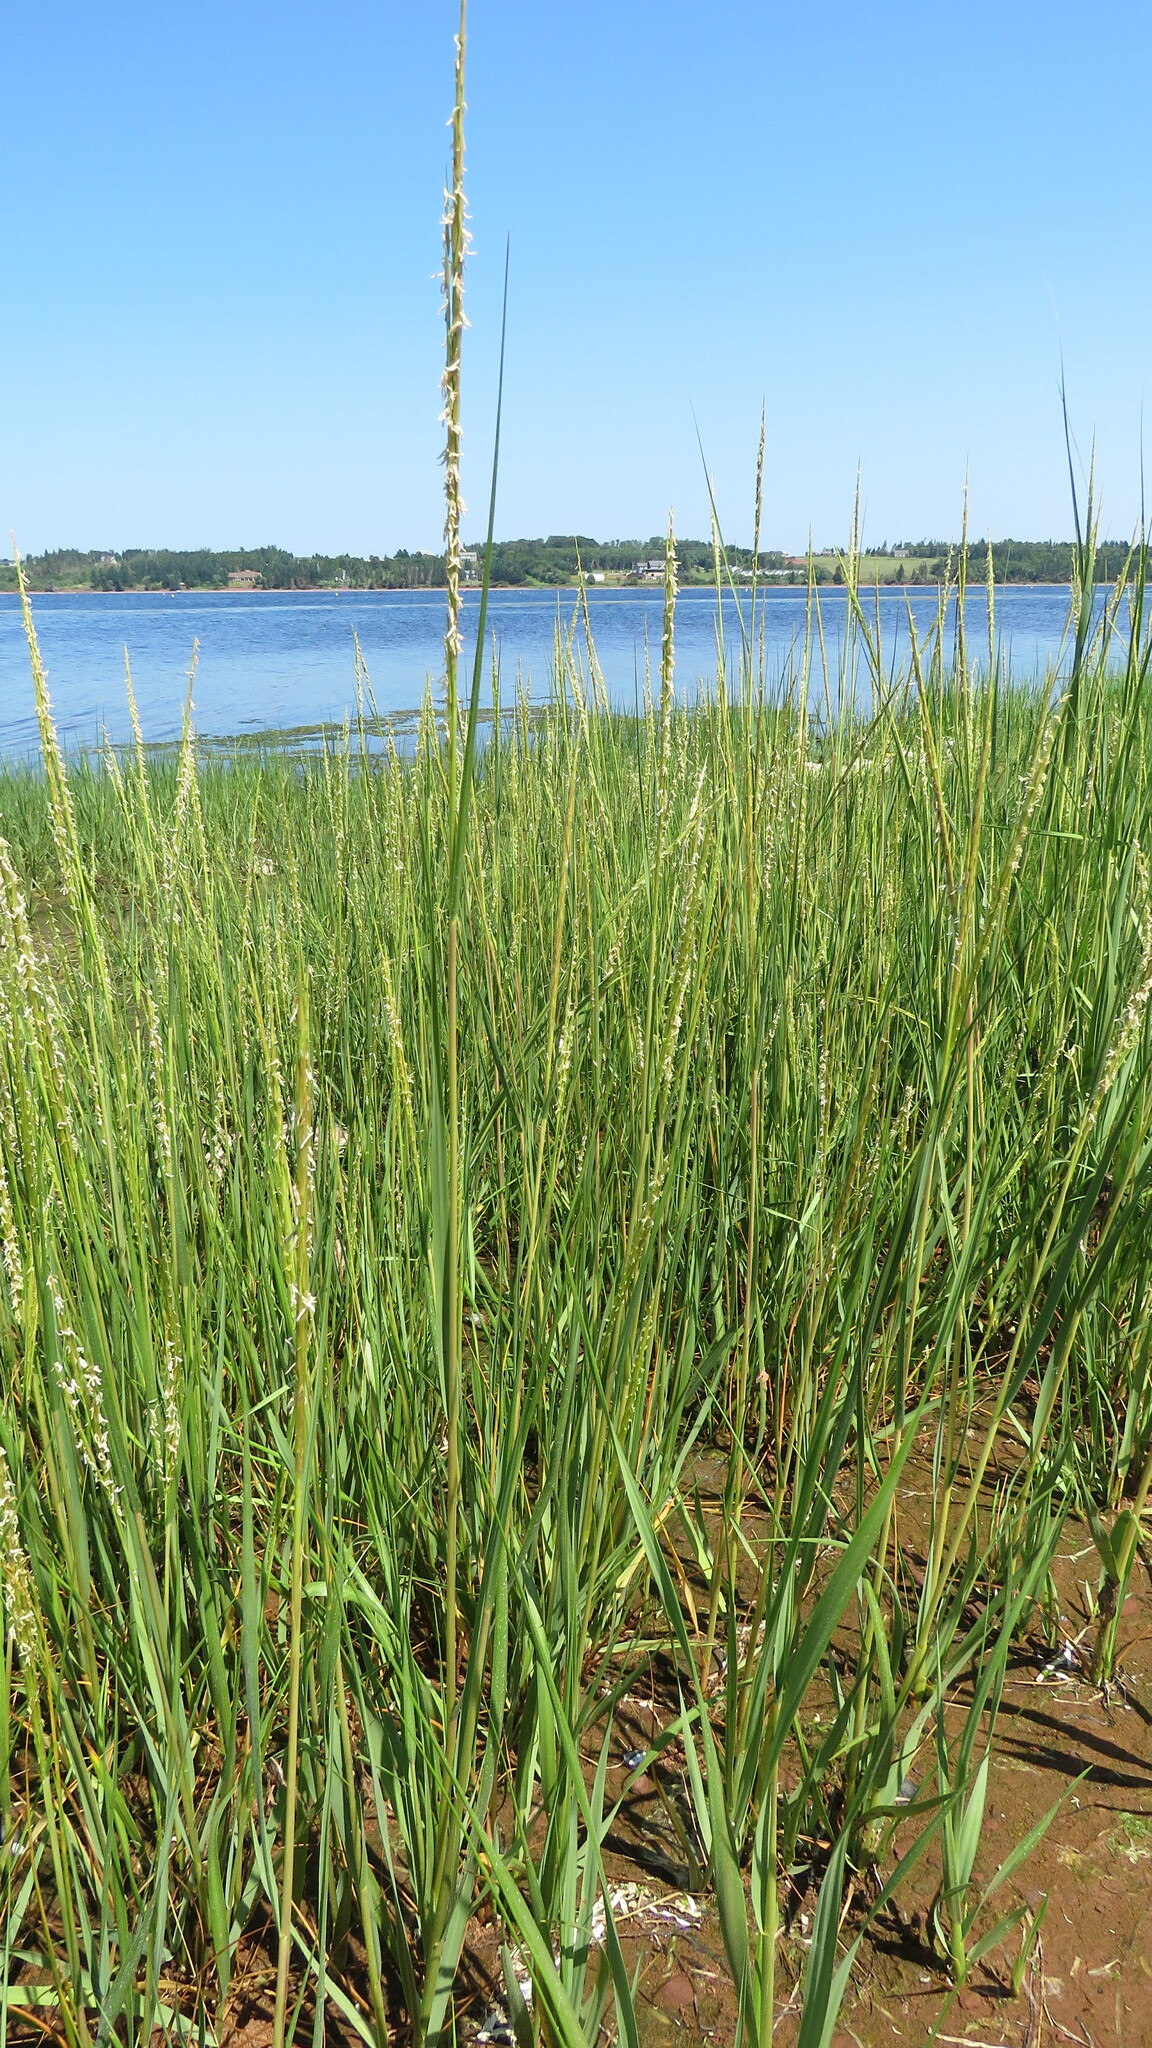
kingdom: Plantae
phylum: Tracheophyta
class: Liliopsida
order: Poales
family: Poaceae
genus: Sporobolus
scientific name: Sporobolus alterniflorus
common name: Atlantic cordgrass
